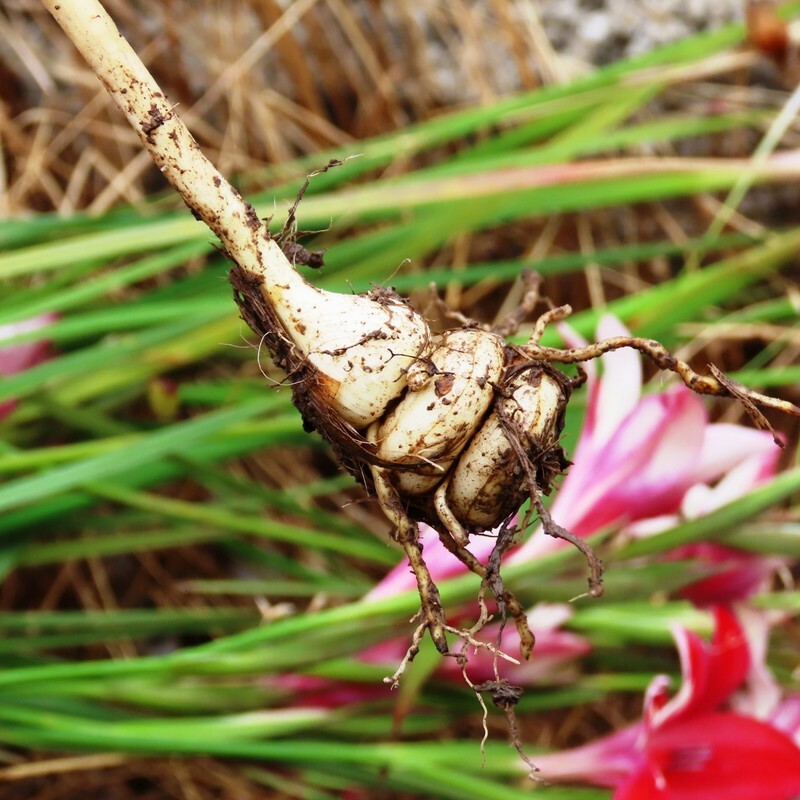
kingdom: Plantae
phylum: Tracheophyta
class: Liliopsida
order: Asparagales
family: Iridaceae
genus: Gladiolus
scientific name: Gladiolus cardinalis
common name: New year-lily
